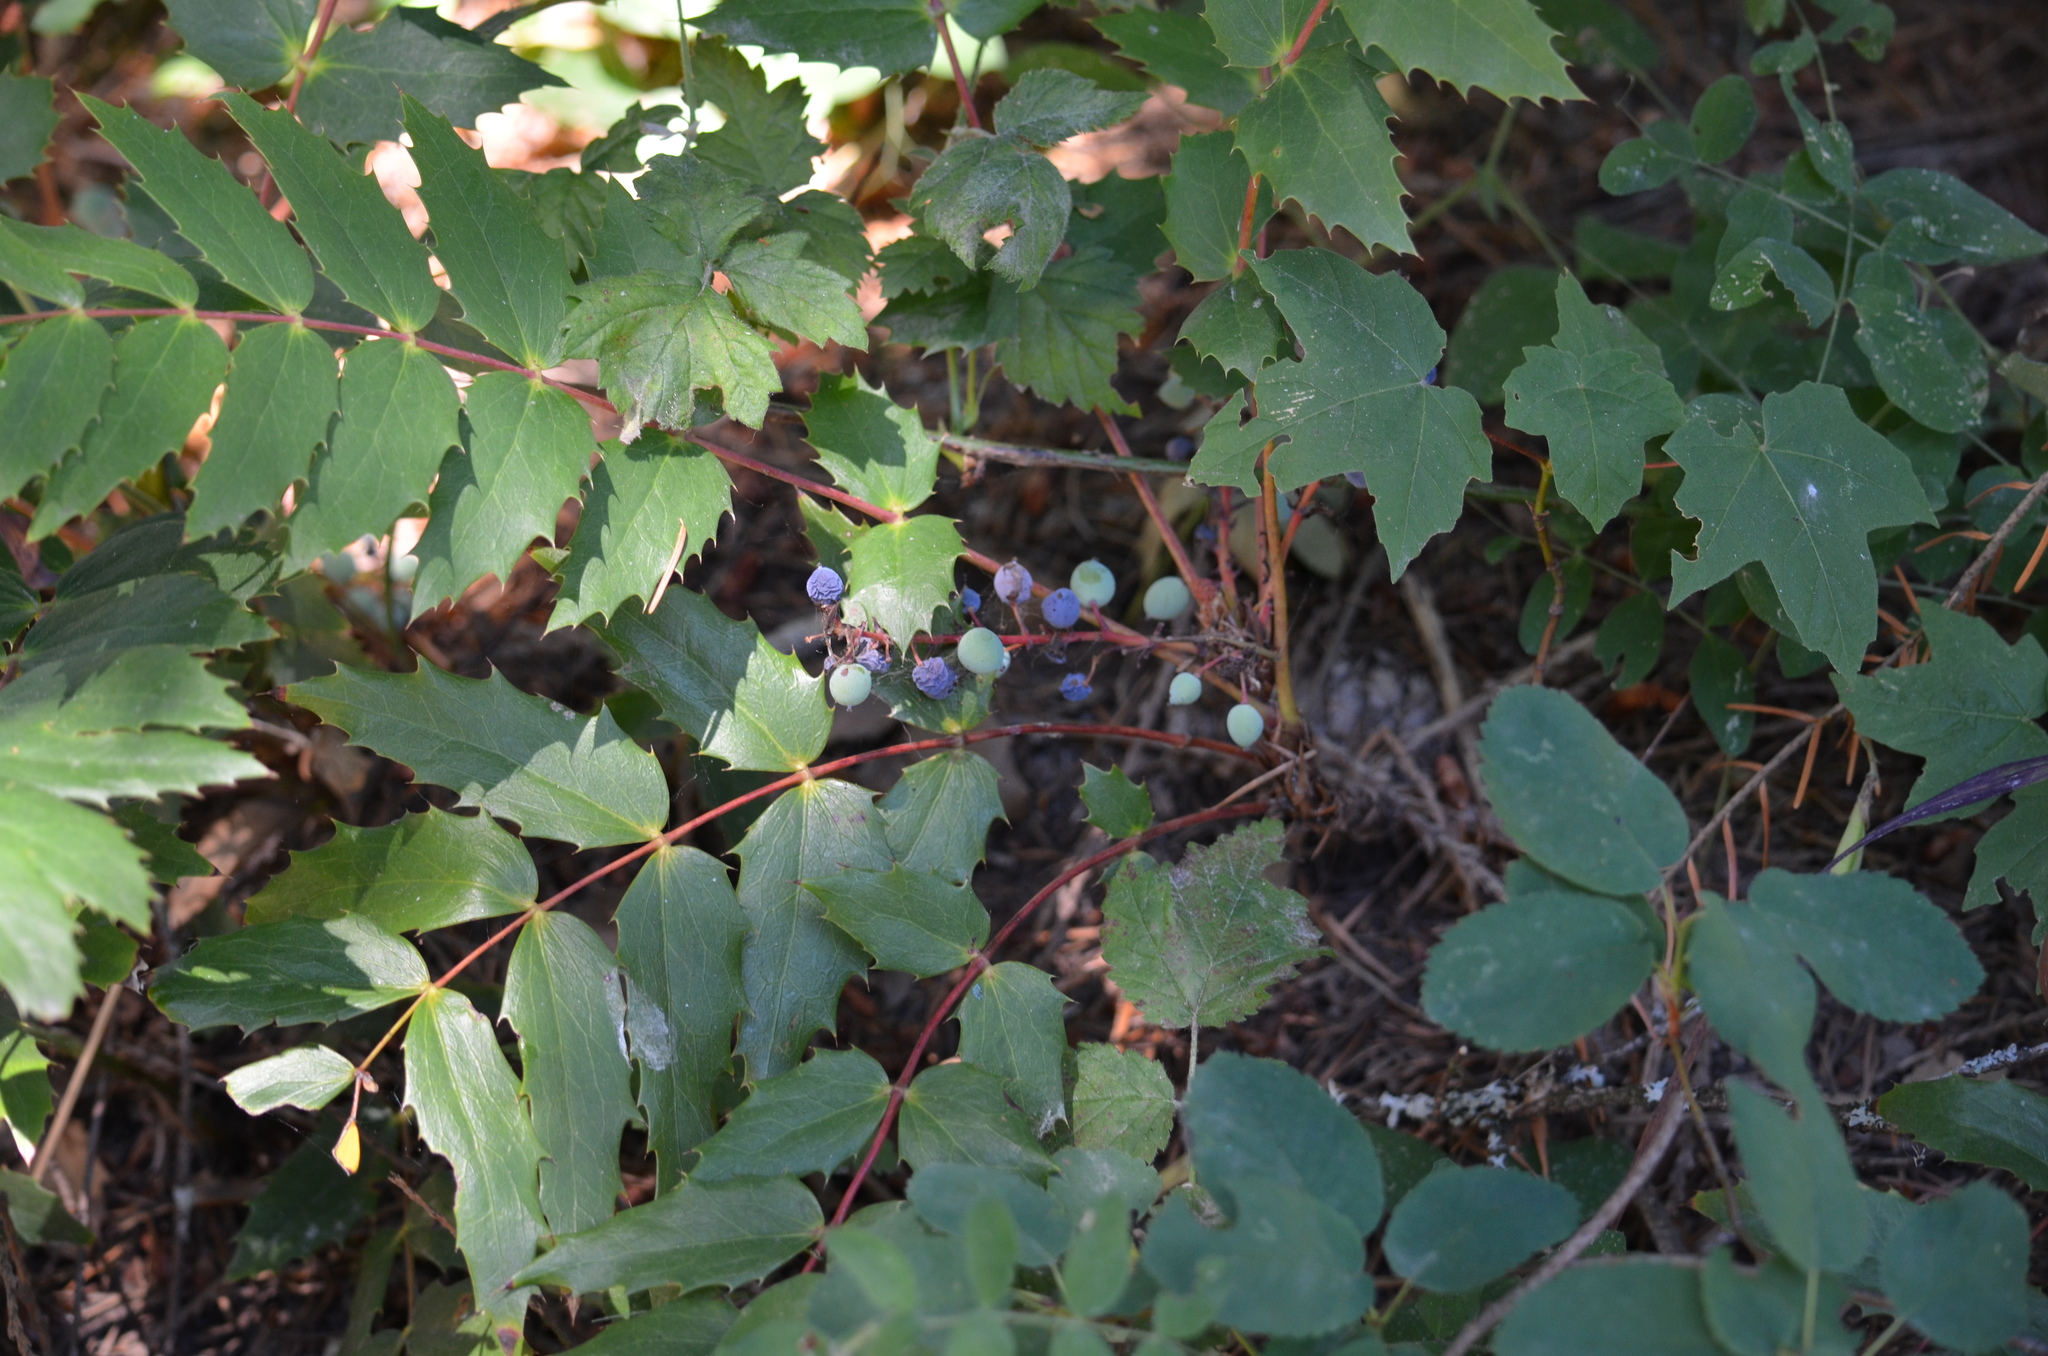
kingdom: Plantae
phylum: Tracheophyta
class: Magnoliopsida
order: Ranunculales
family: Berberidaceae
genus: Mahonia
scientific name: Mahonia nervosa
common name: Cascade oregon-grape
